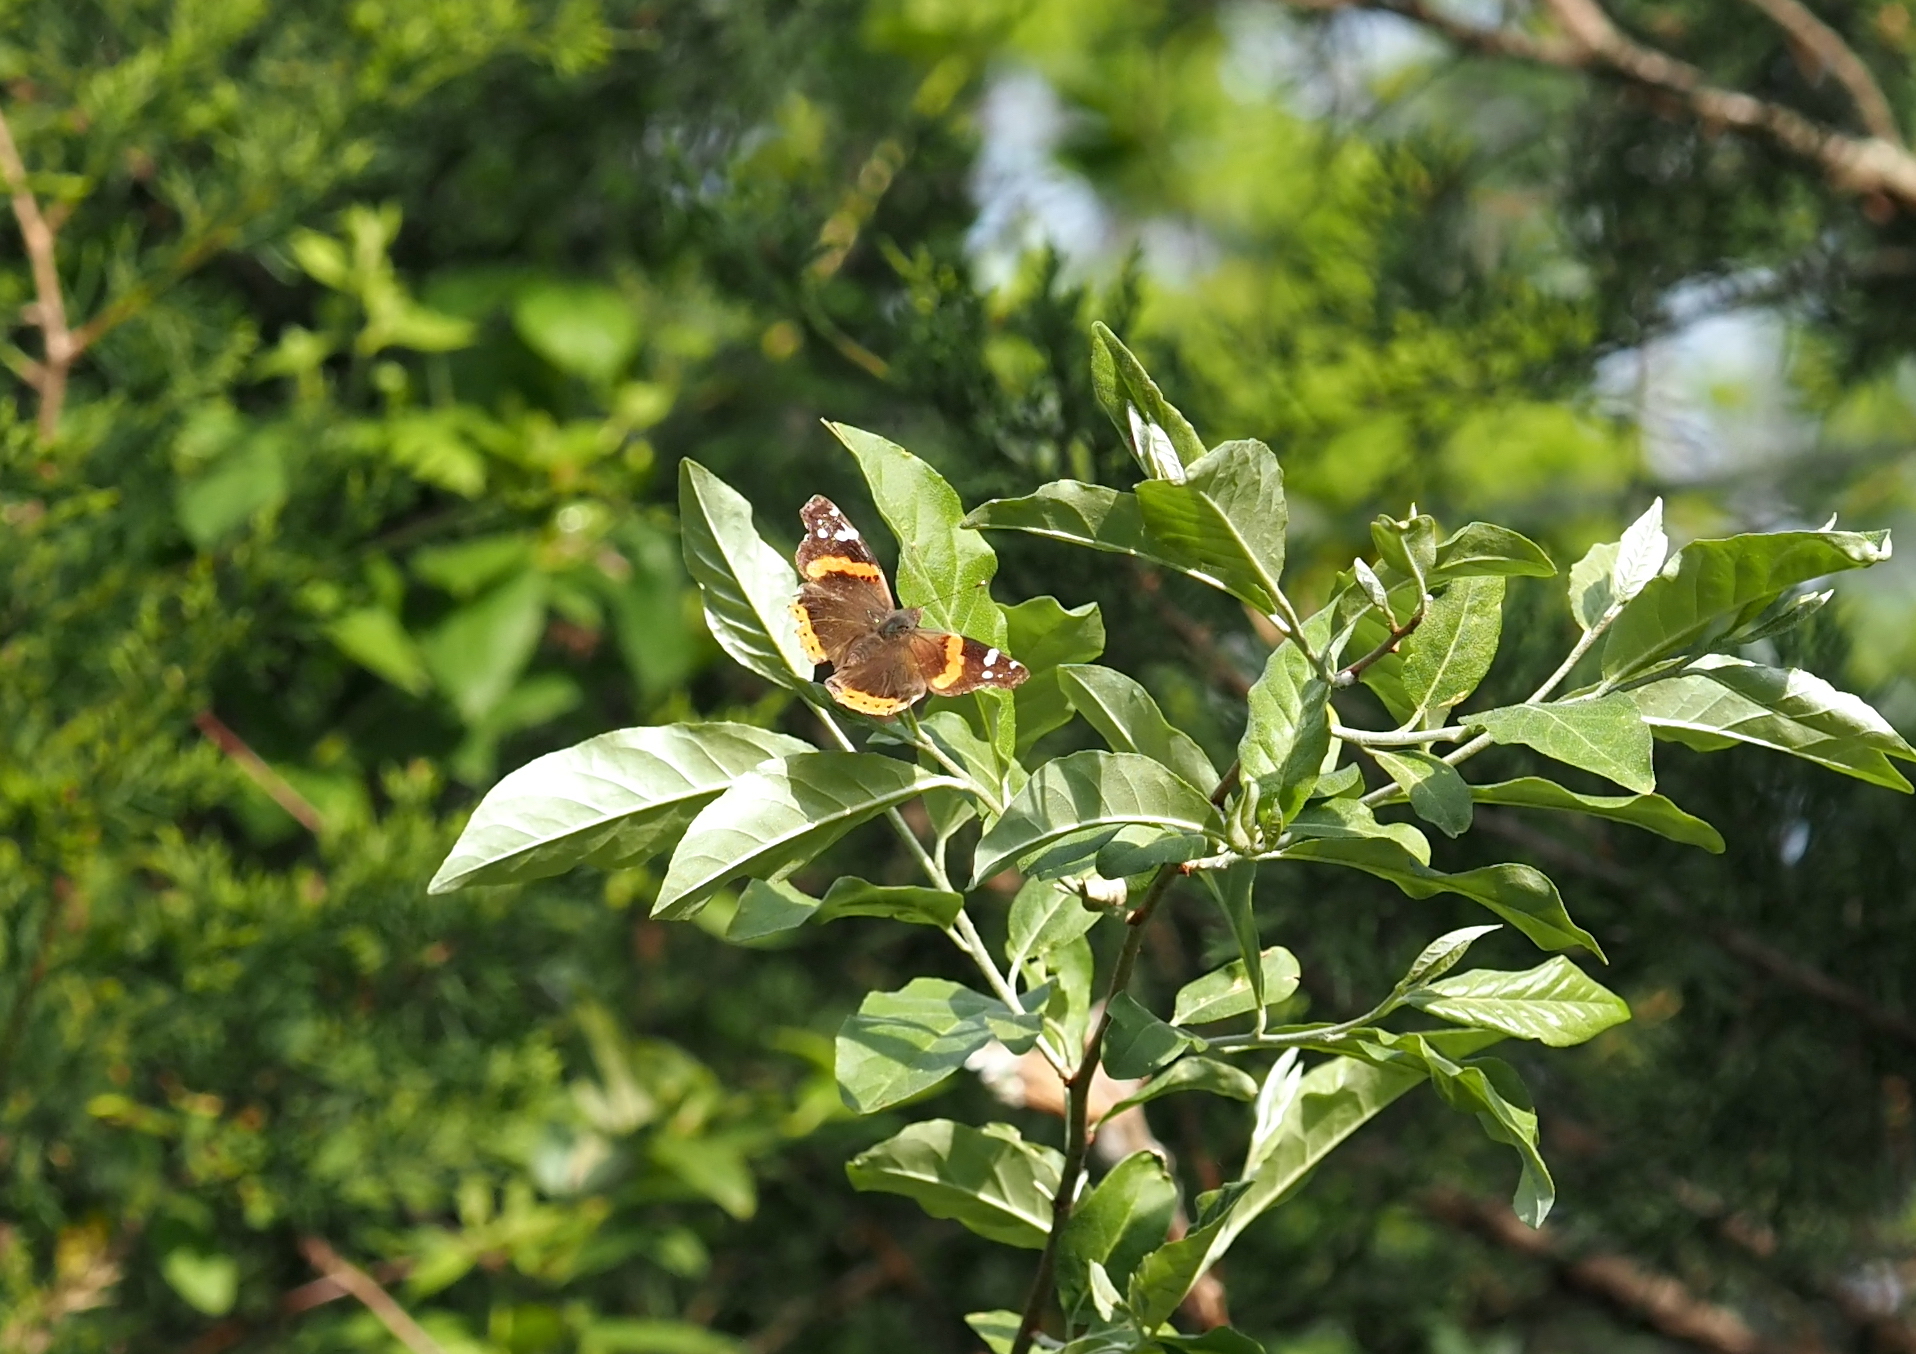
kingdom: Animalia
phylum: Arthropoda
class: Insecta
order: Lepidoptera
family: Nymphalidae
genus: Vanessa
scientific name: Vanessa atalanta
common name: Red admiral
